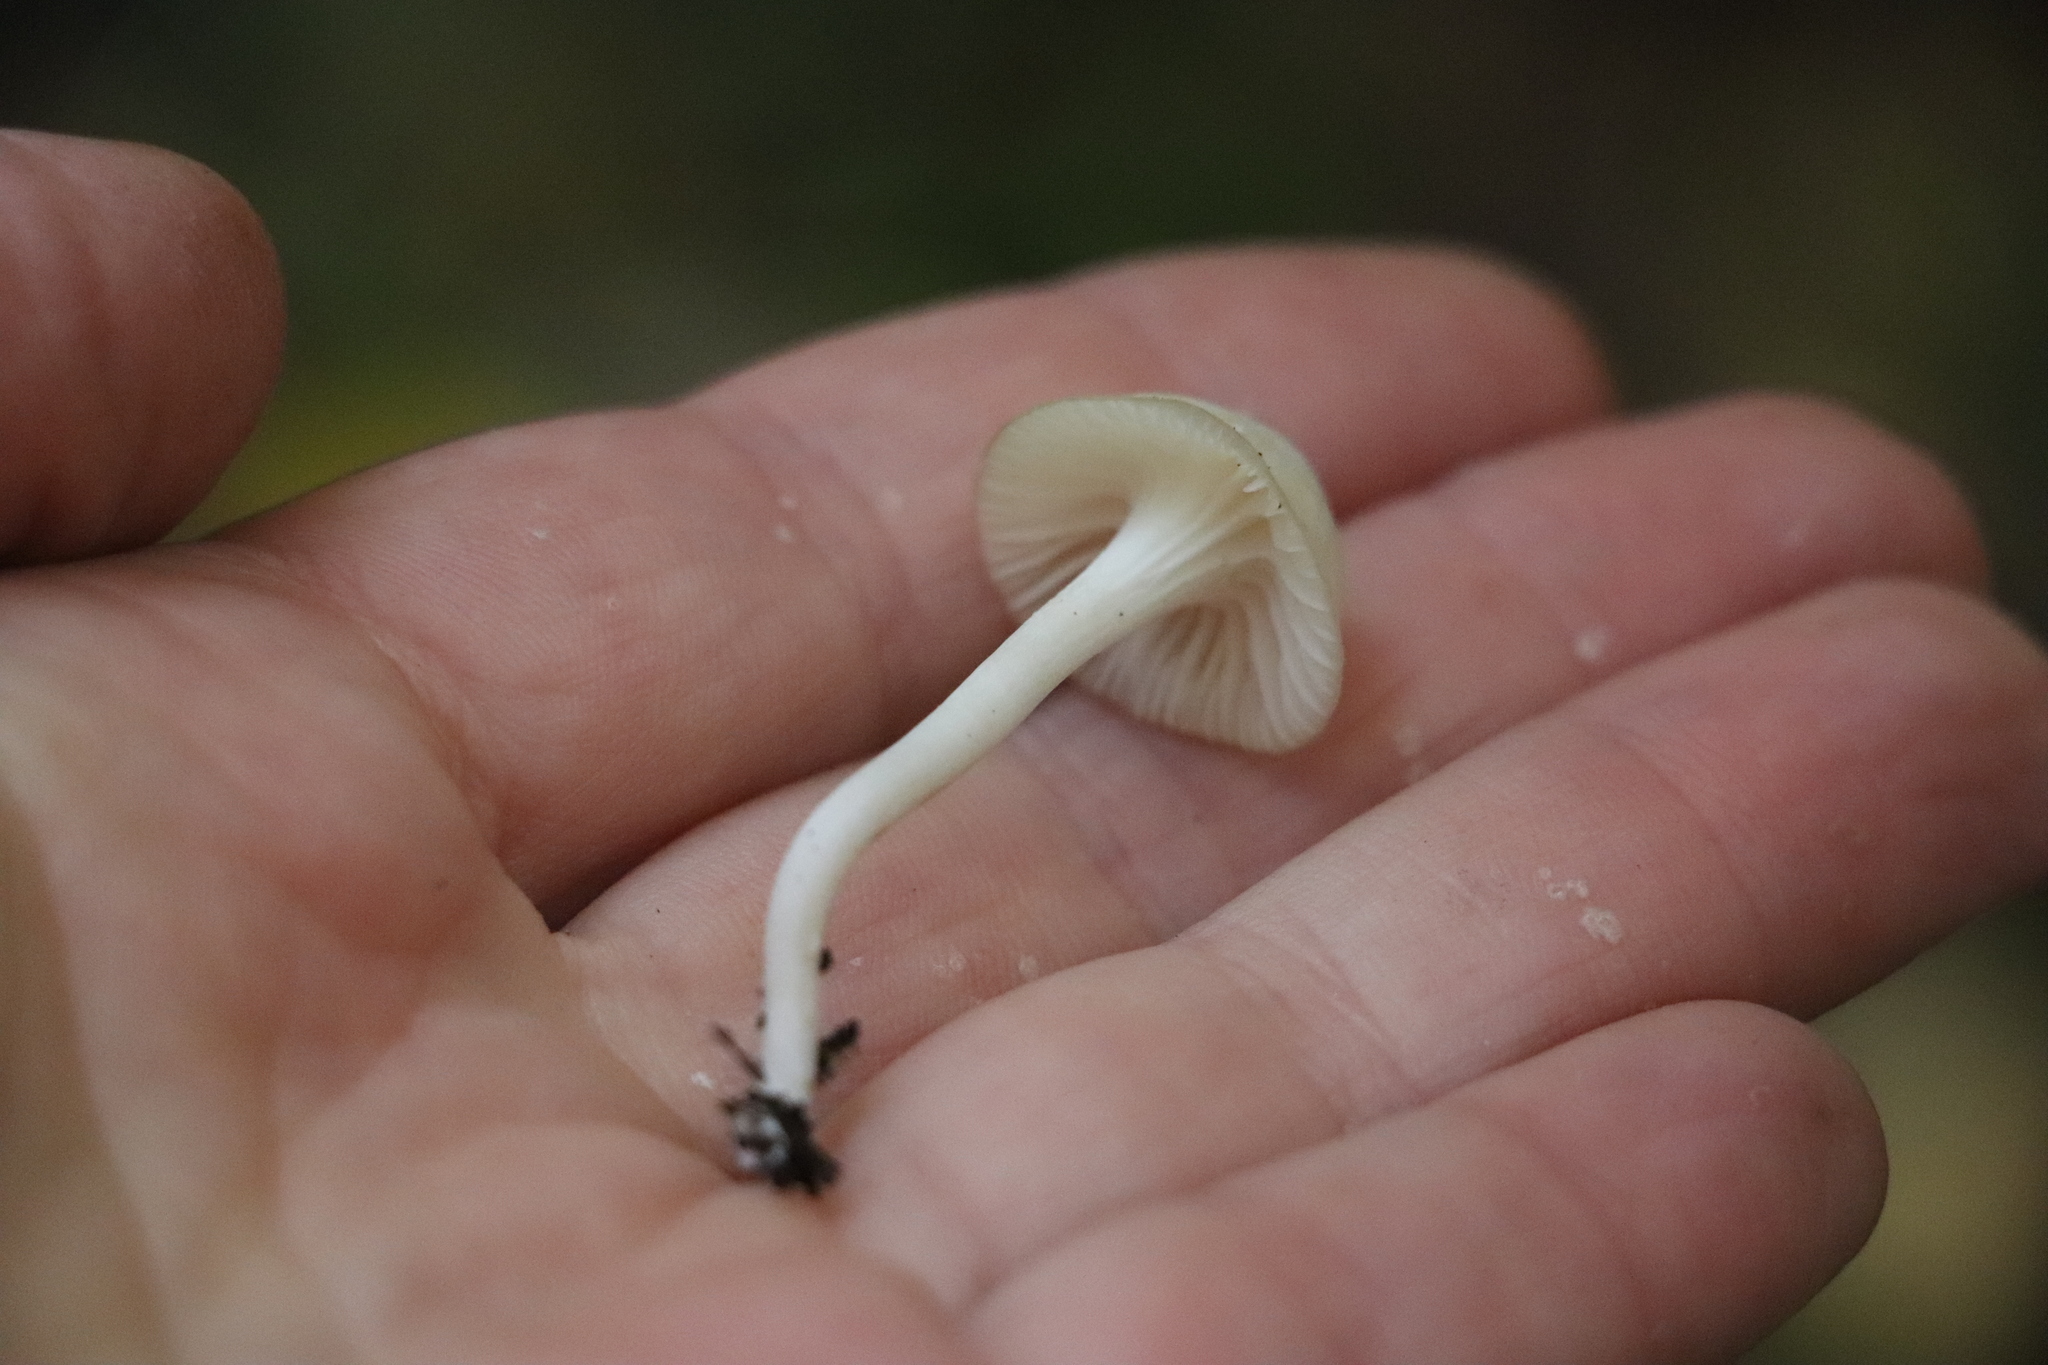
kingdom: Fungi
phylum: Basidiomycota
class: Agaricomycetes
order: Agaricales
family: Hygrophoraceae
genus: Cuphophyllus
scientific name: Cuphophyllus virgineus
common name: Snowy waxcap
